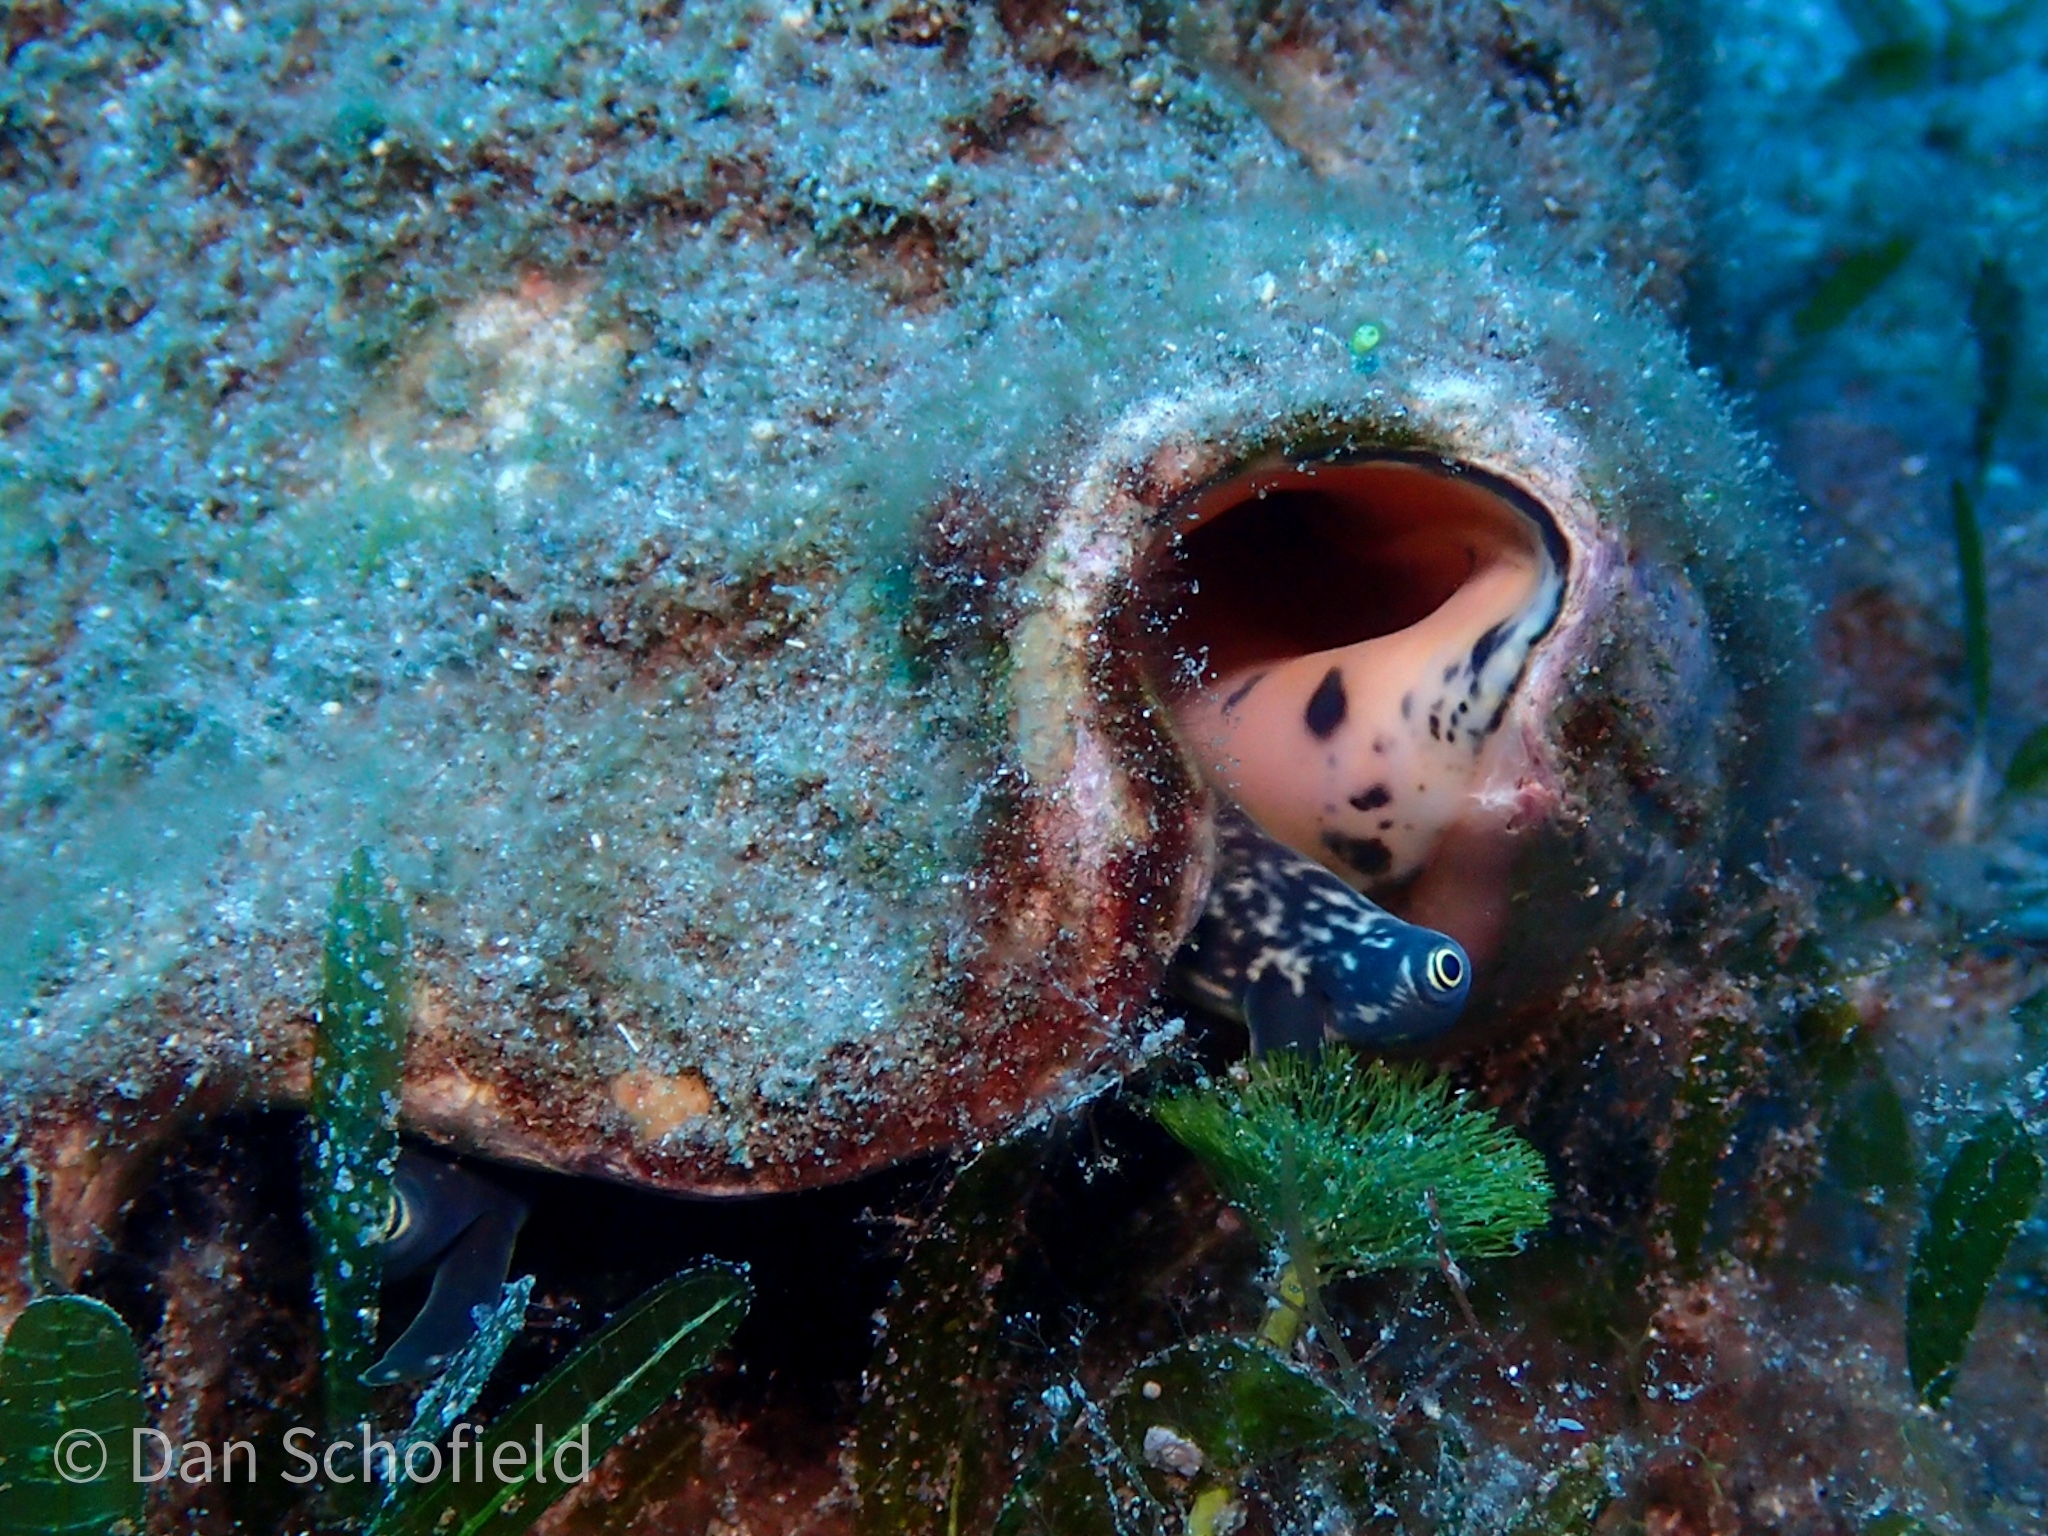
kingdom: Animalia
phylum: Mollusca
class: Gastropoda
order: Littorinimorpha
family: Strombidae
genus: Aliger
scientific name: Aliger gigas
